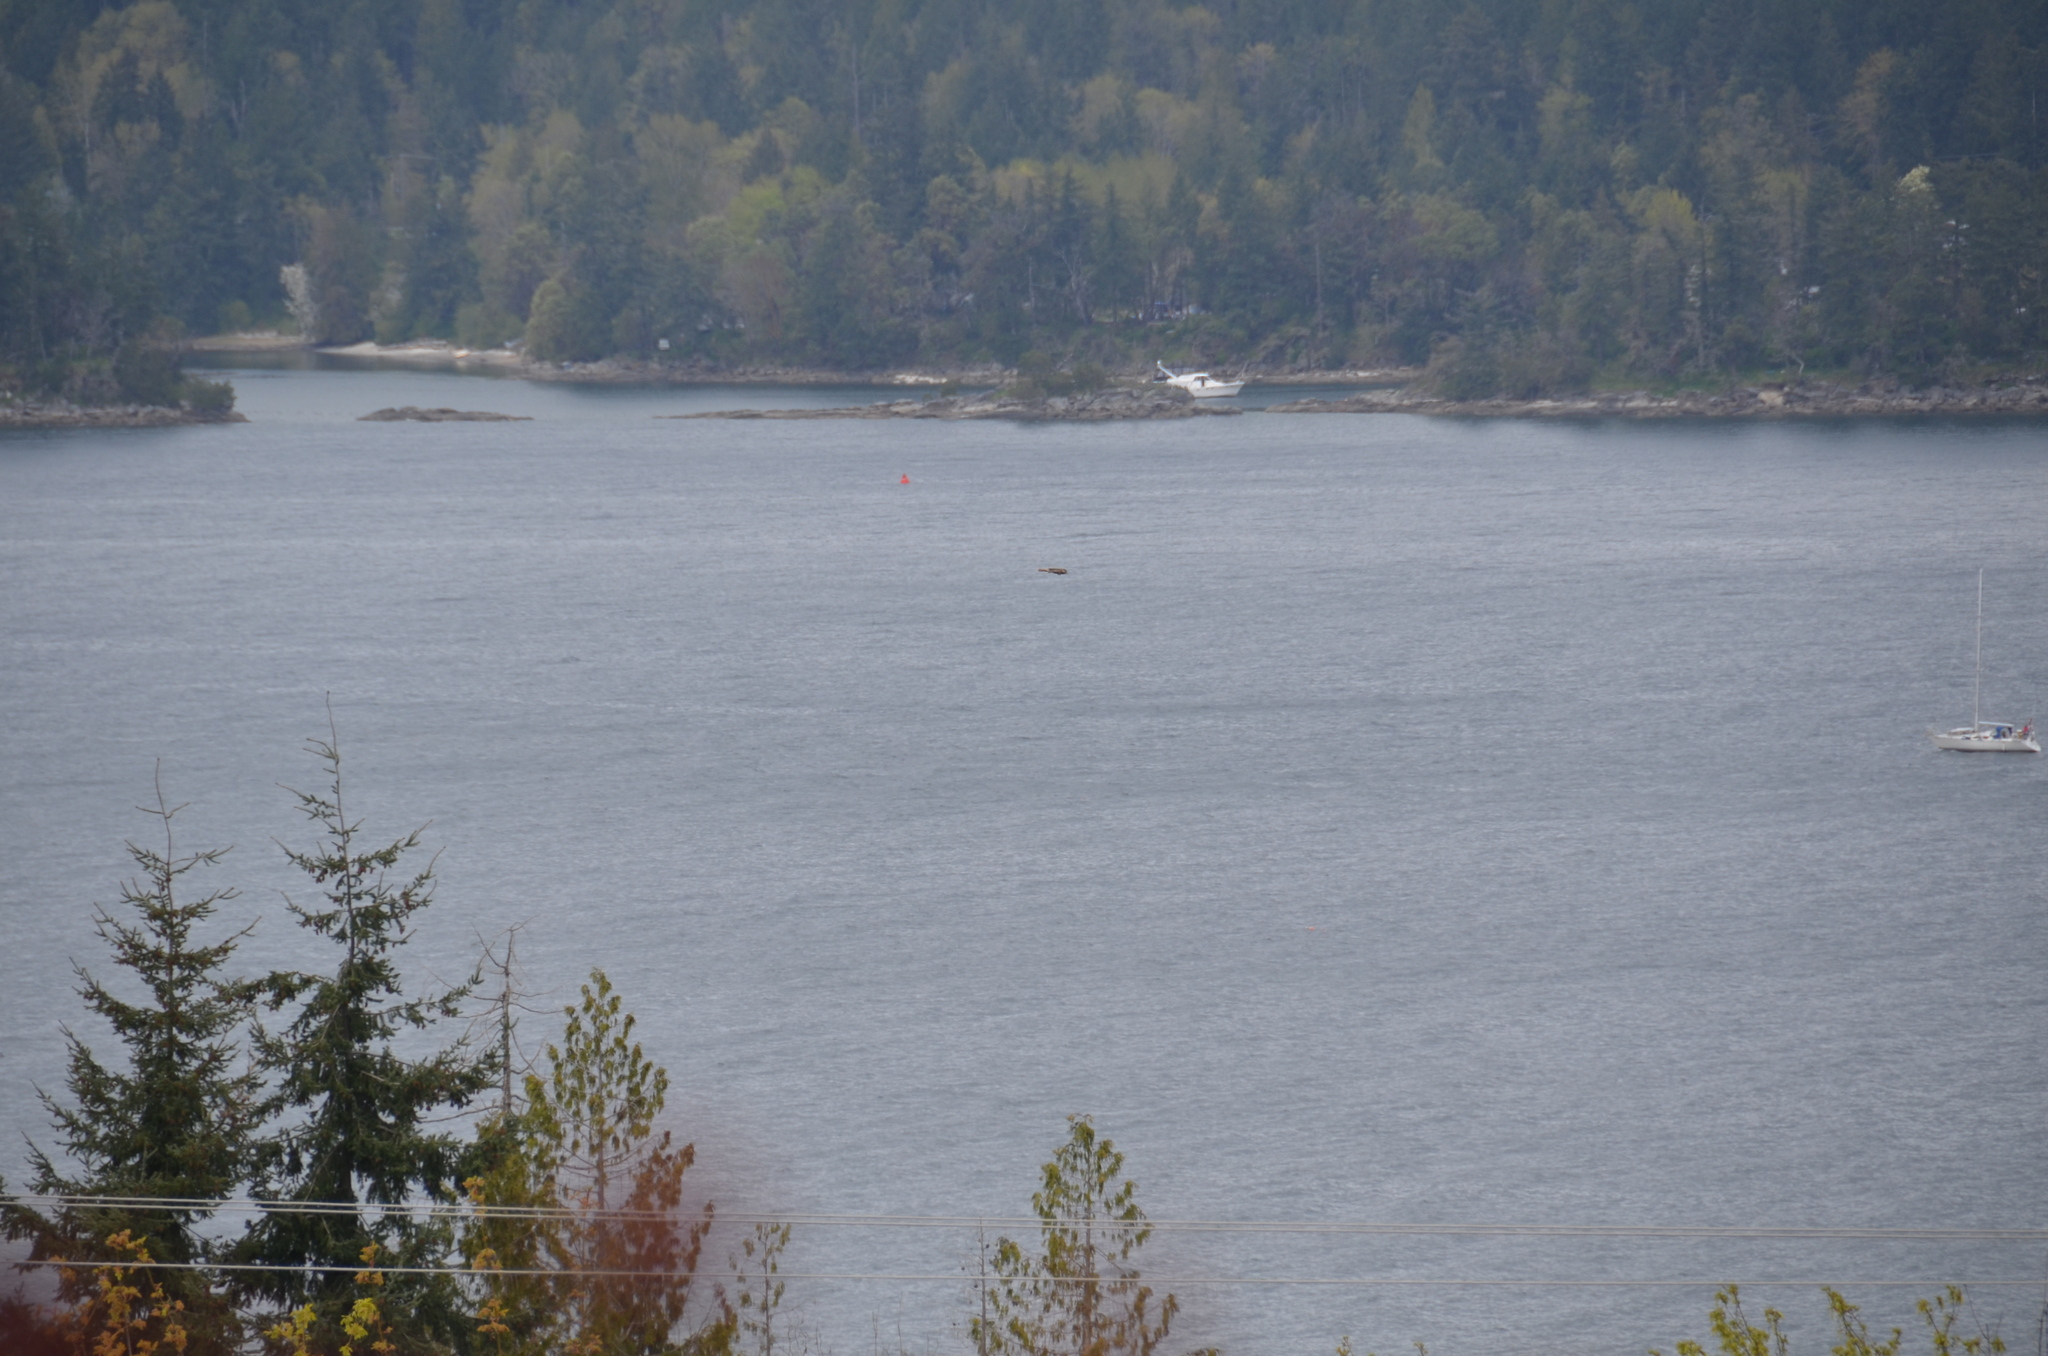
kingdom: Animalia
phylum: Chordata
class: Aves
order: Accipitriformes
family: Accipitridae
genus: Buteo
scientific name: Buteo jamaicensis
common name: Red-tailed hawk
